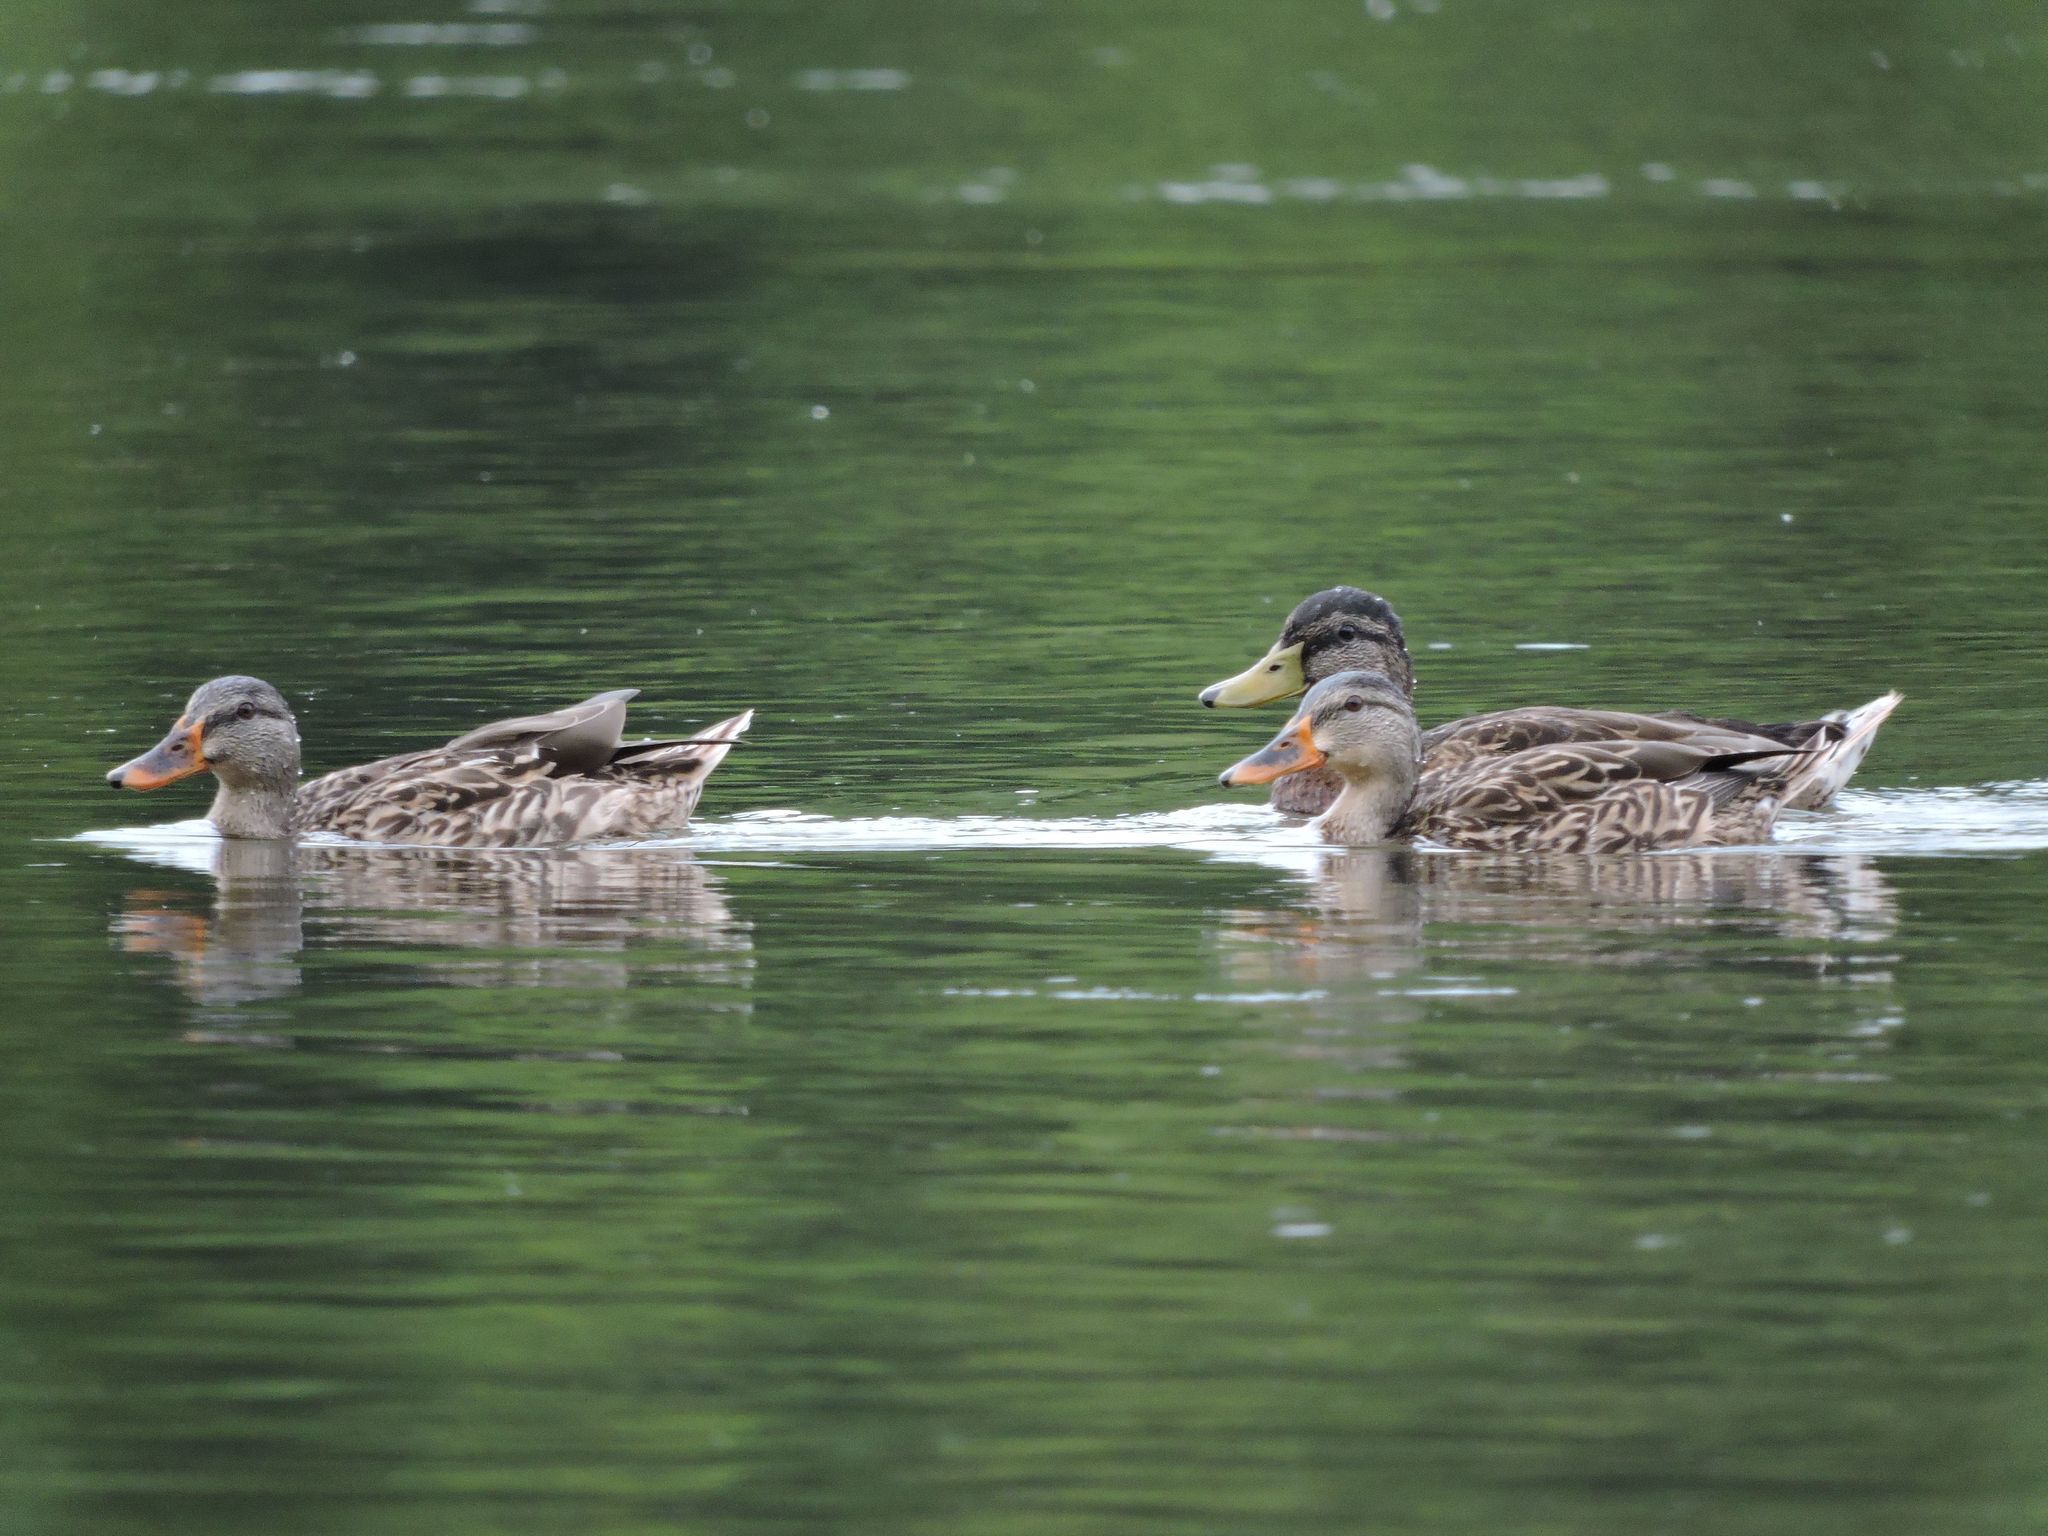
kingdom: Animalia
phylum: Chordata
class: Aves
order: Anseriformes
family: Anatidae
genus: Anas
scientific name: Anas platyrhynchos
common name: Mallard
